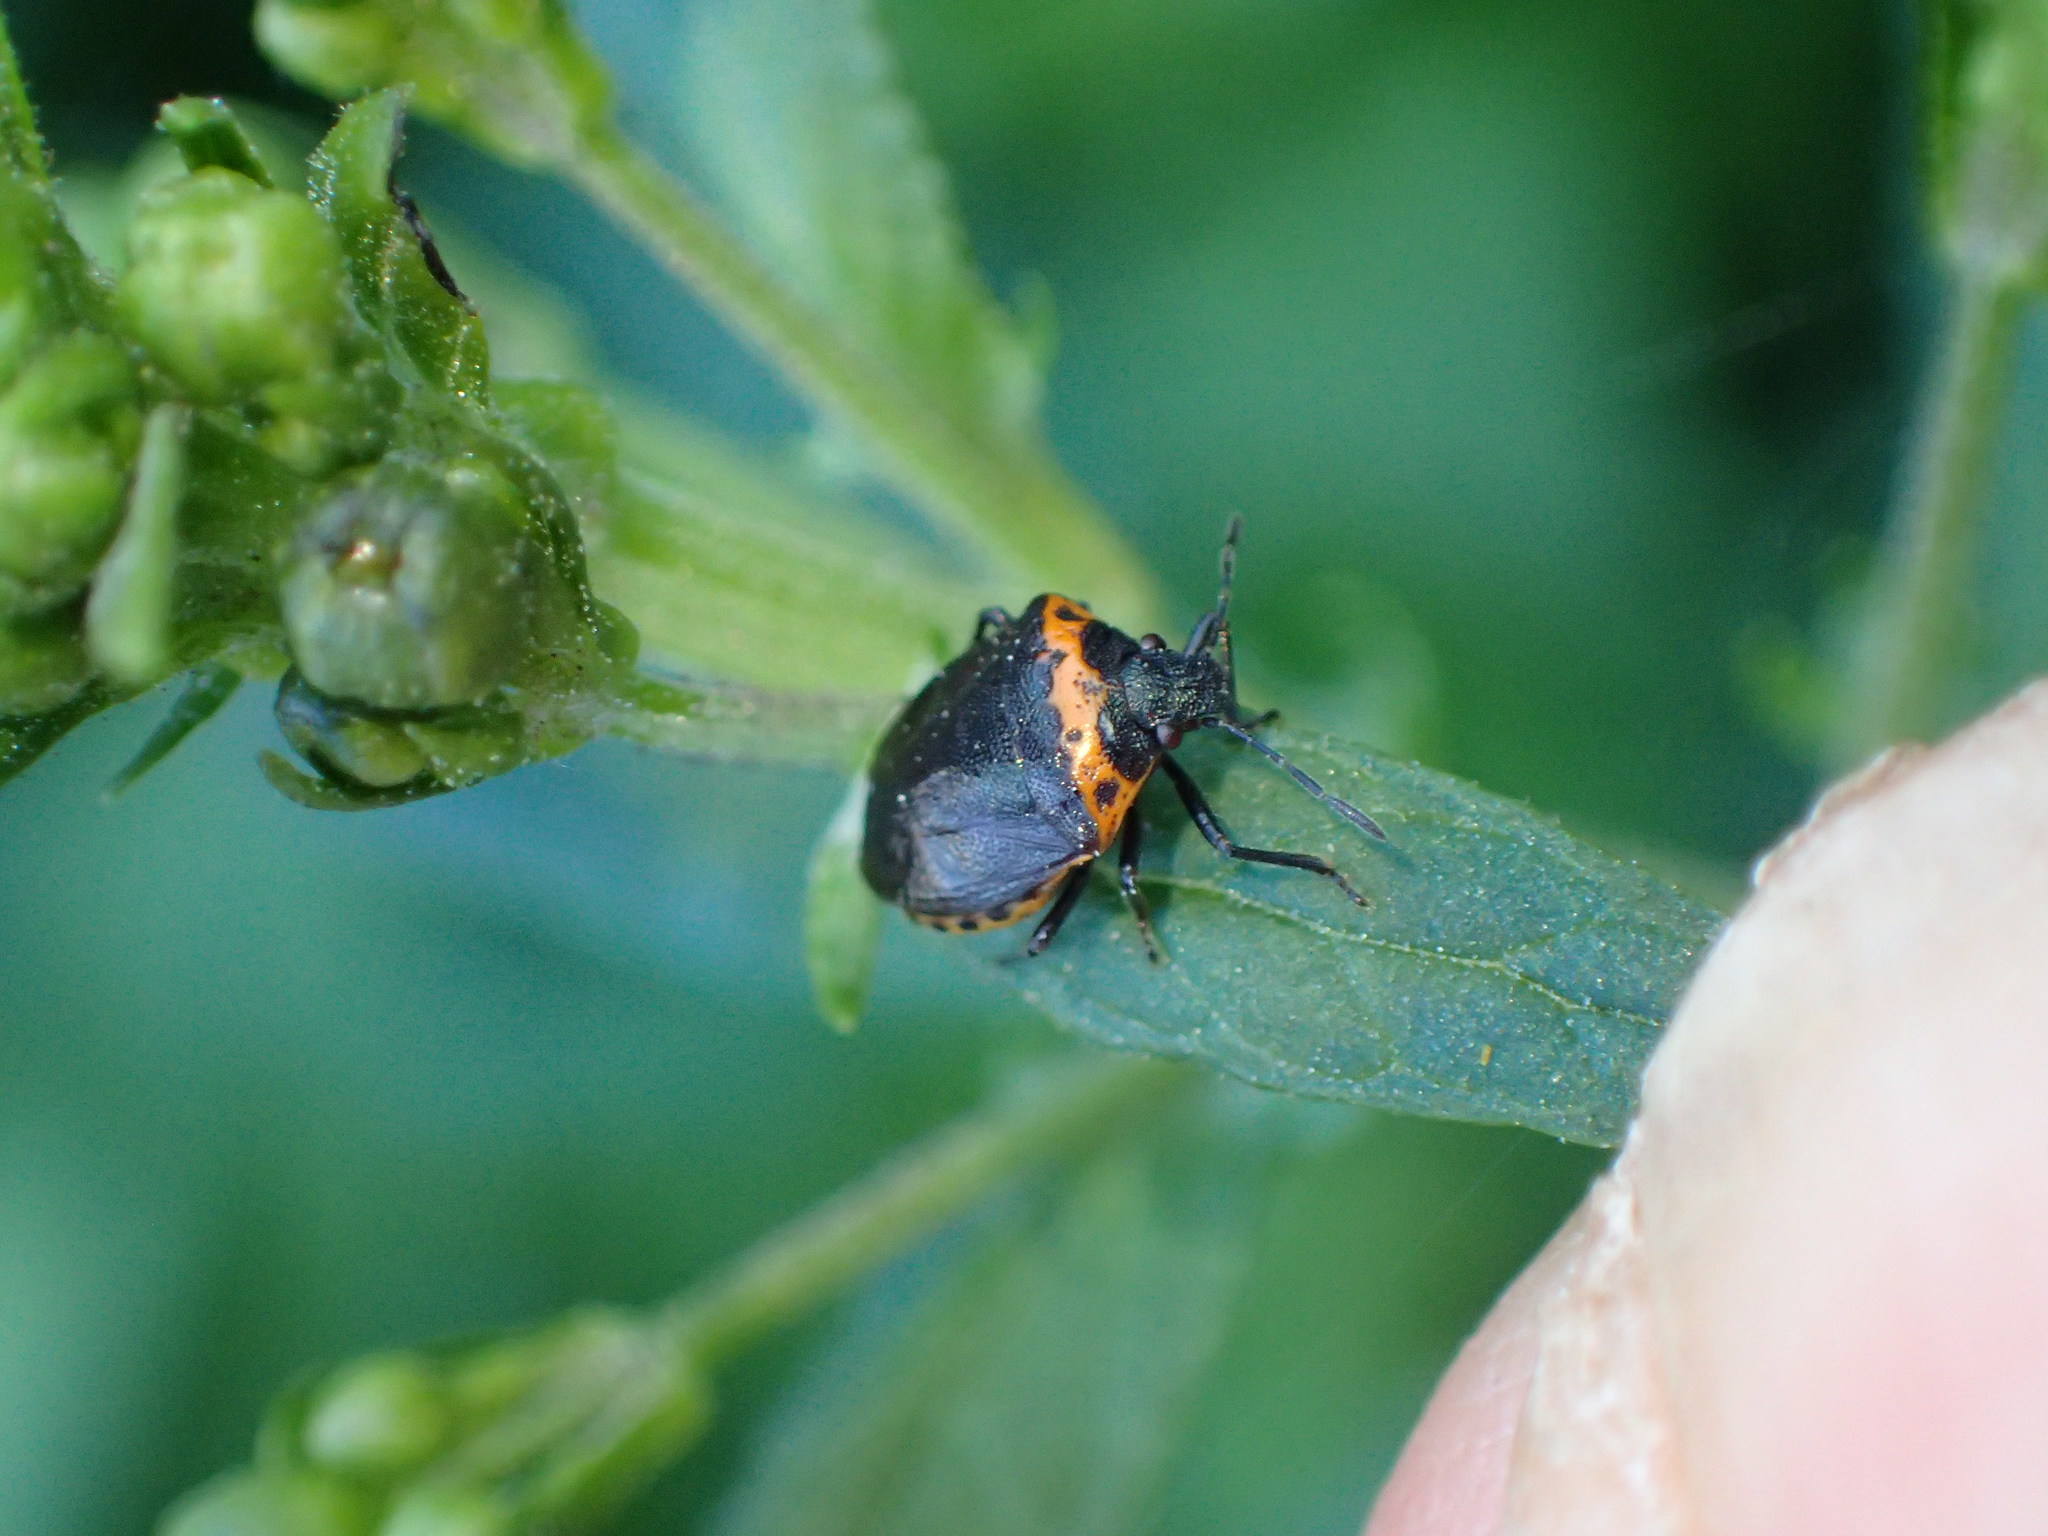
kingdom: Animalia
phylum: Arthropoda
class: Insecta
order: Hemiptera
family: Pentatomidae
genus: Cosmopepla
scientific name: Cosmopepla uhleri
